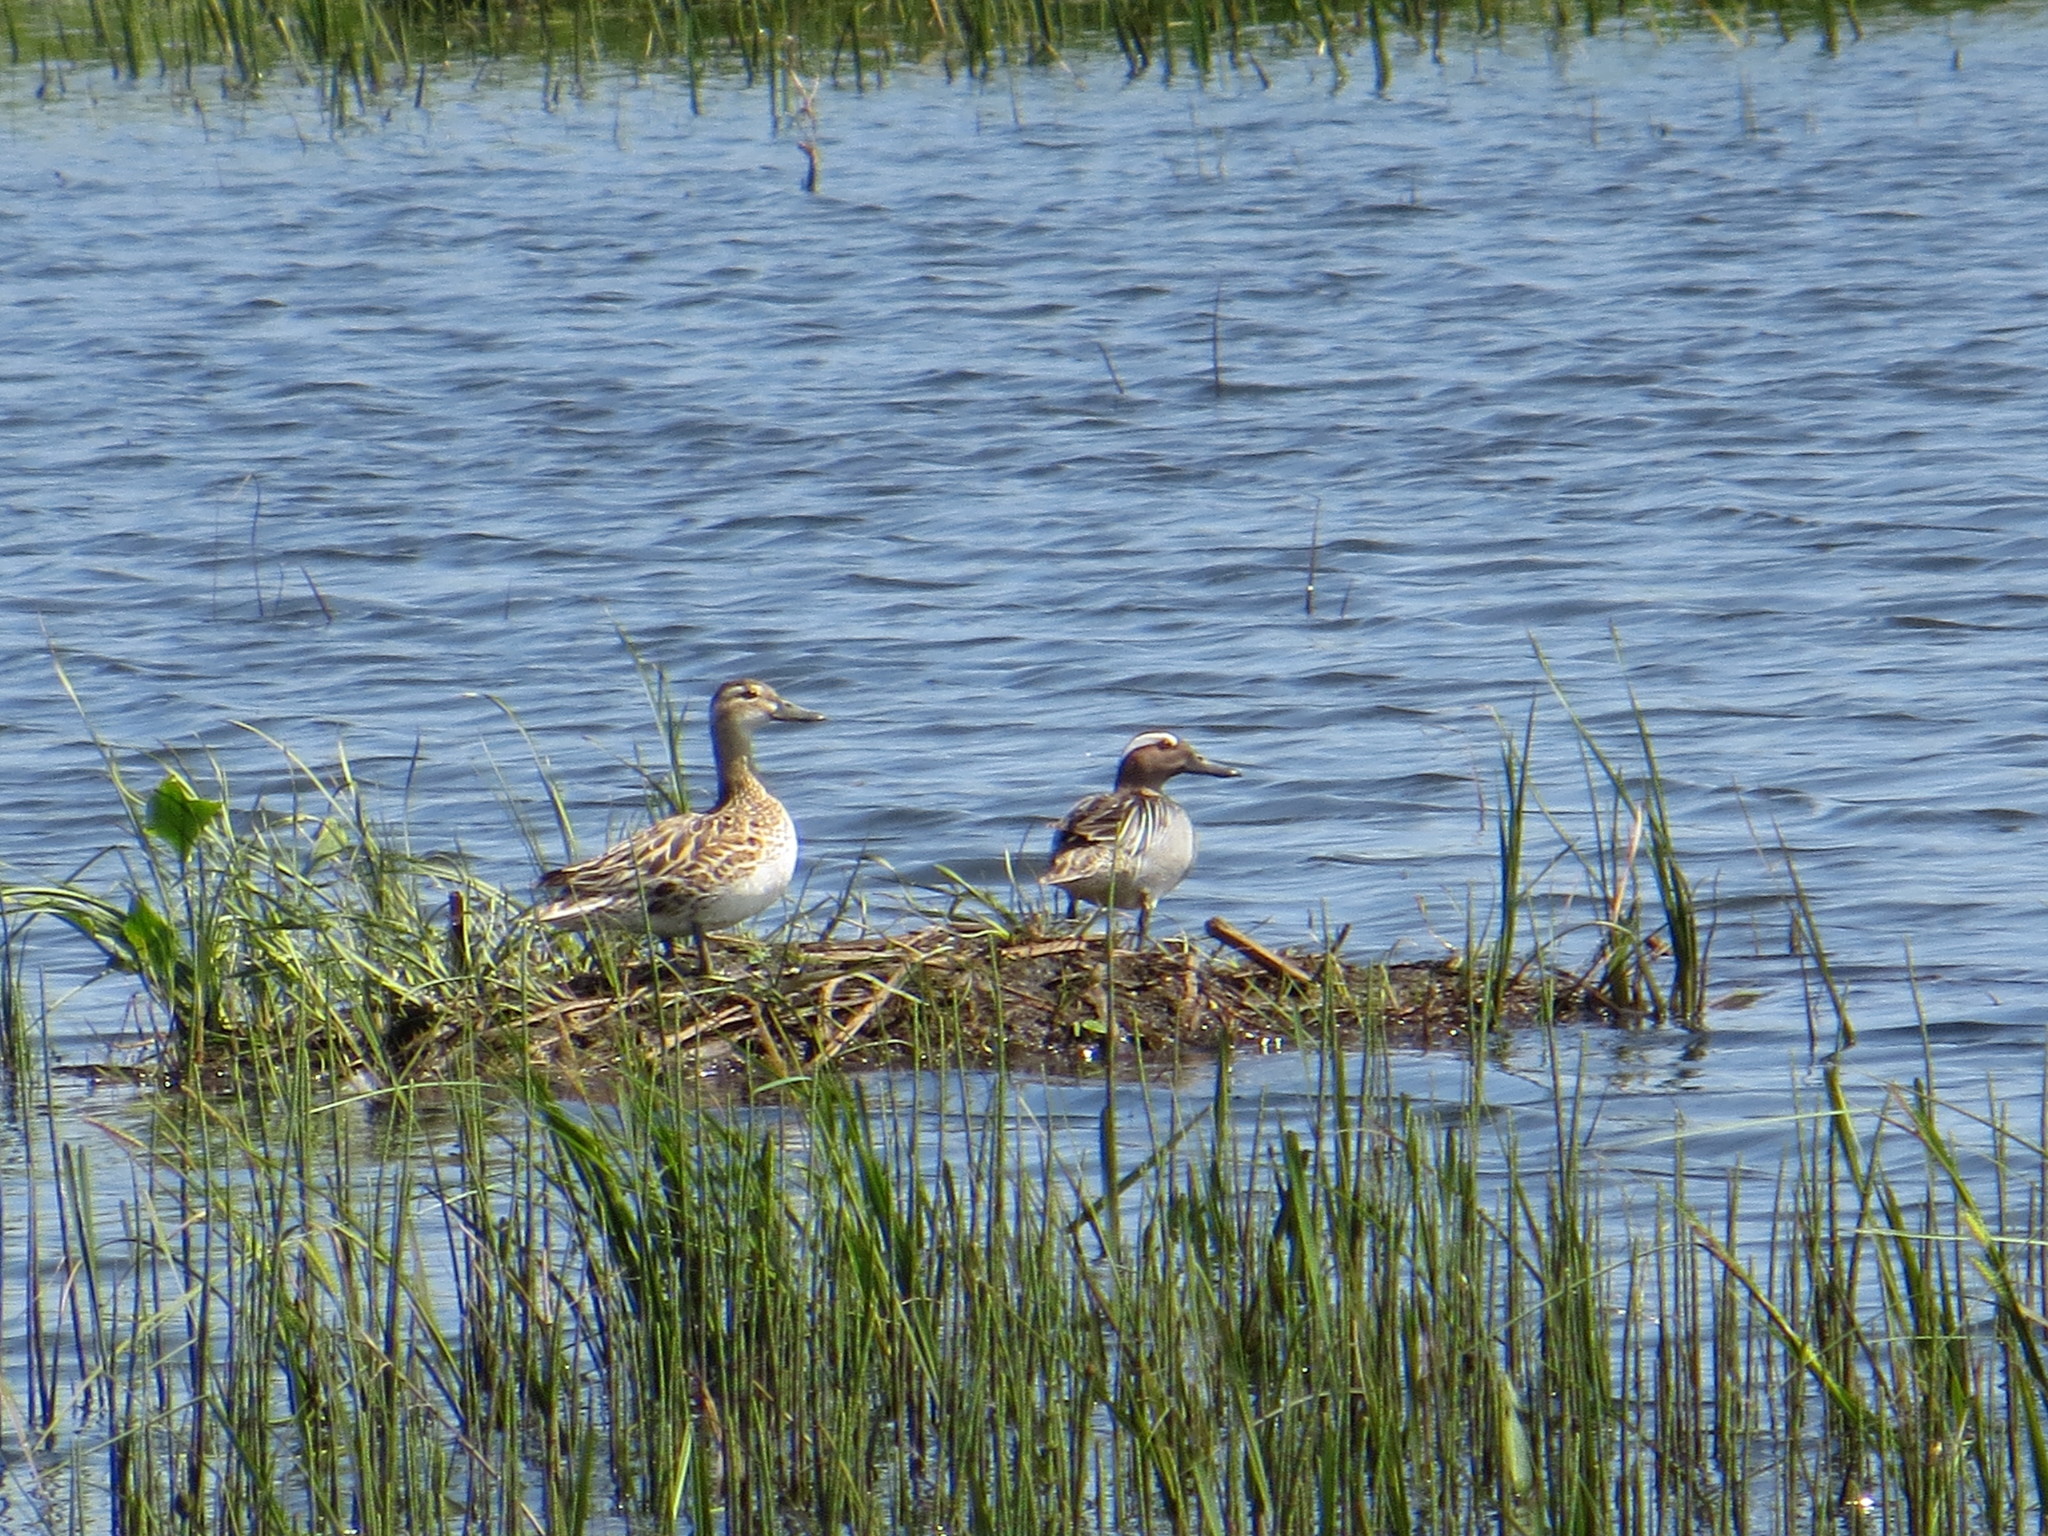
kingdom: Animalia
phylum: Chordata
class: Aves
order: Anseriformes
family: Anatidae
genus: Spatula
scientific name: Spatula querquedula
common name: Garganey
